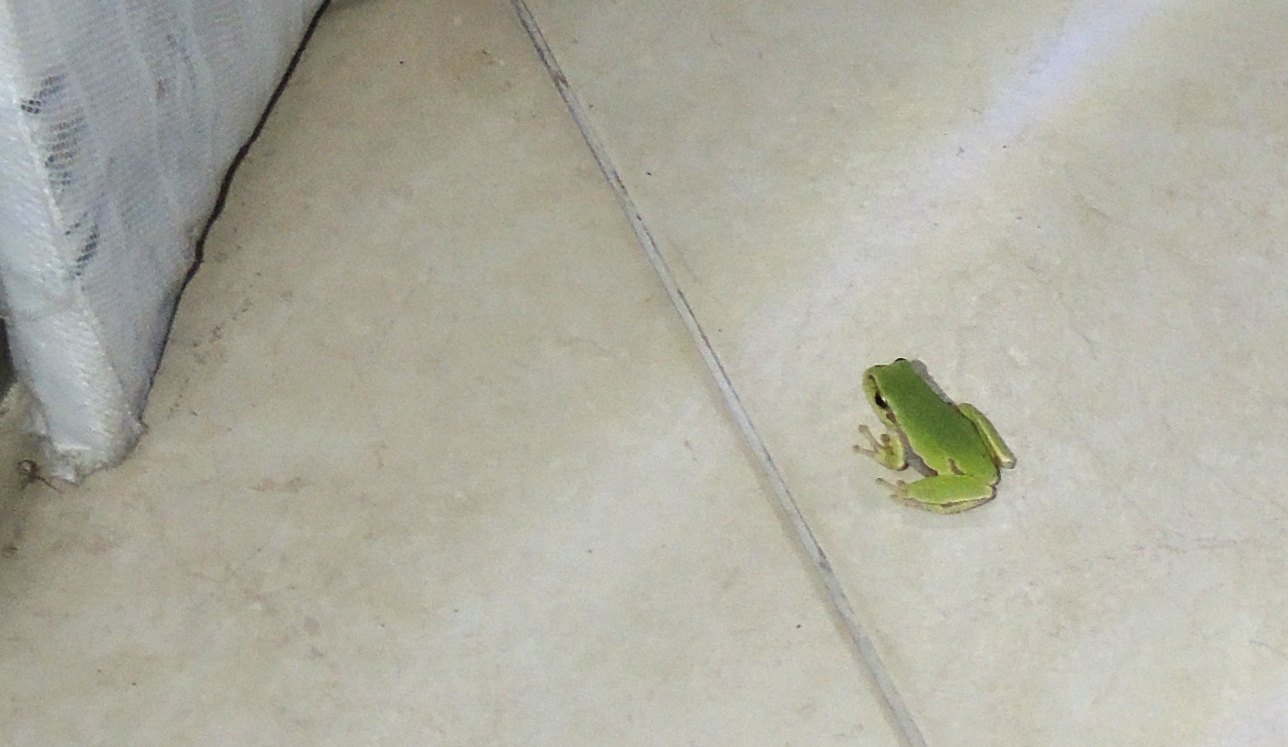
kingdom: Animalia
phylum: Chordata
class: Amphibia
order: Anura
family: Hylidae
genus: Hyla
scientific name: Hyla orientalis
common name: Caucasian treefrog
